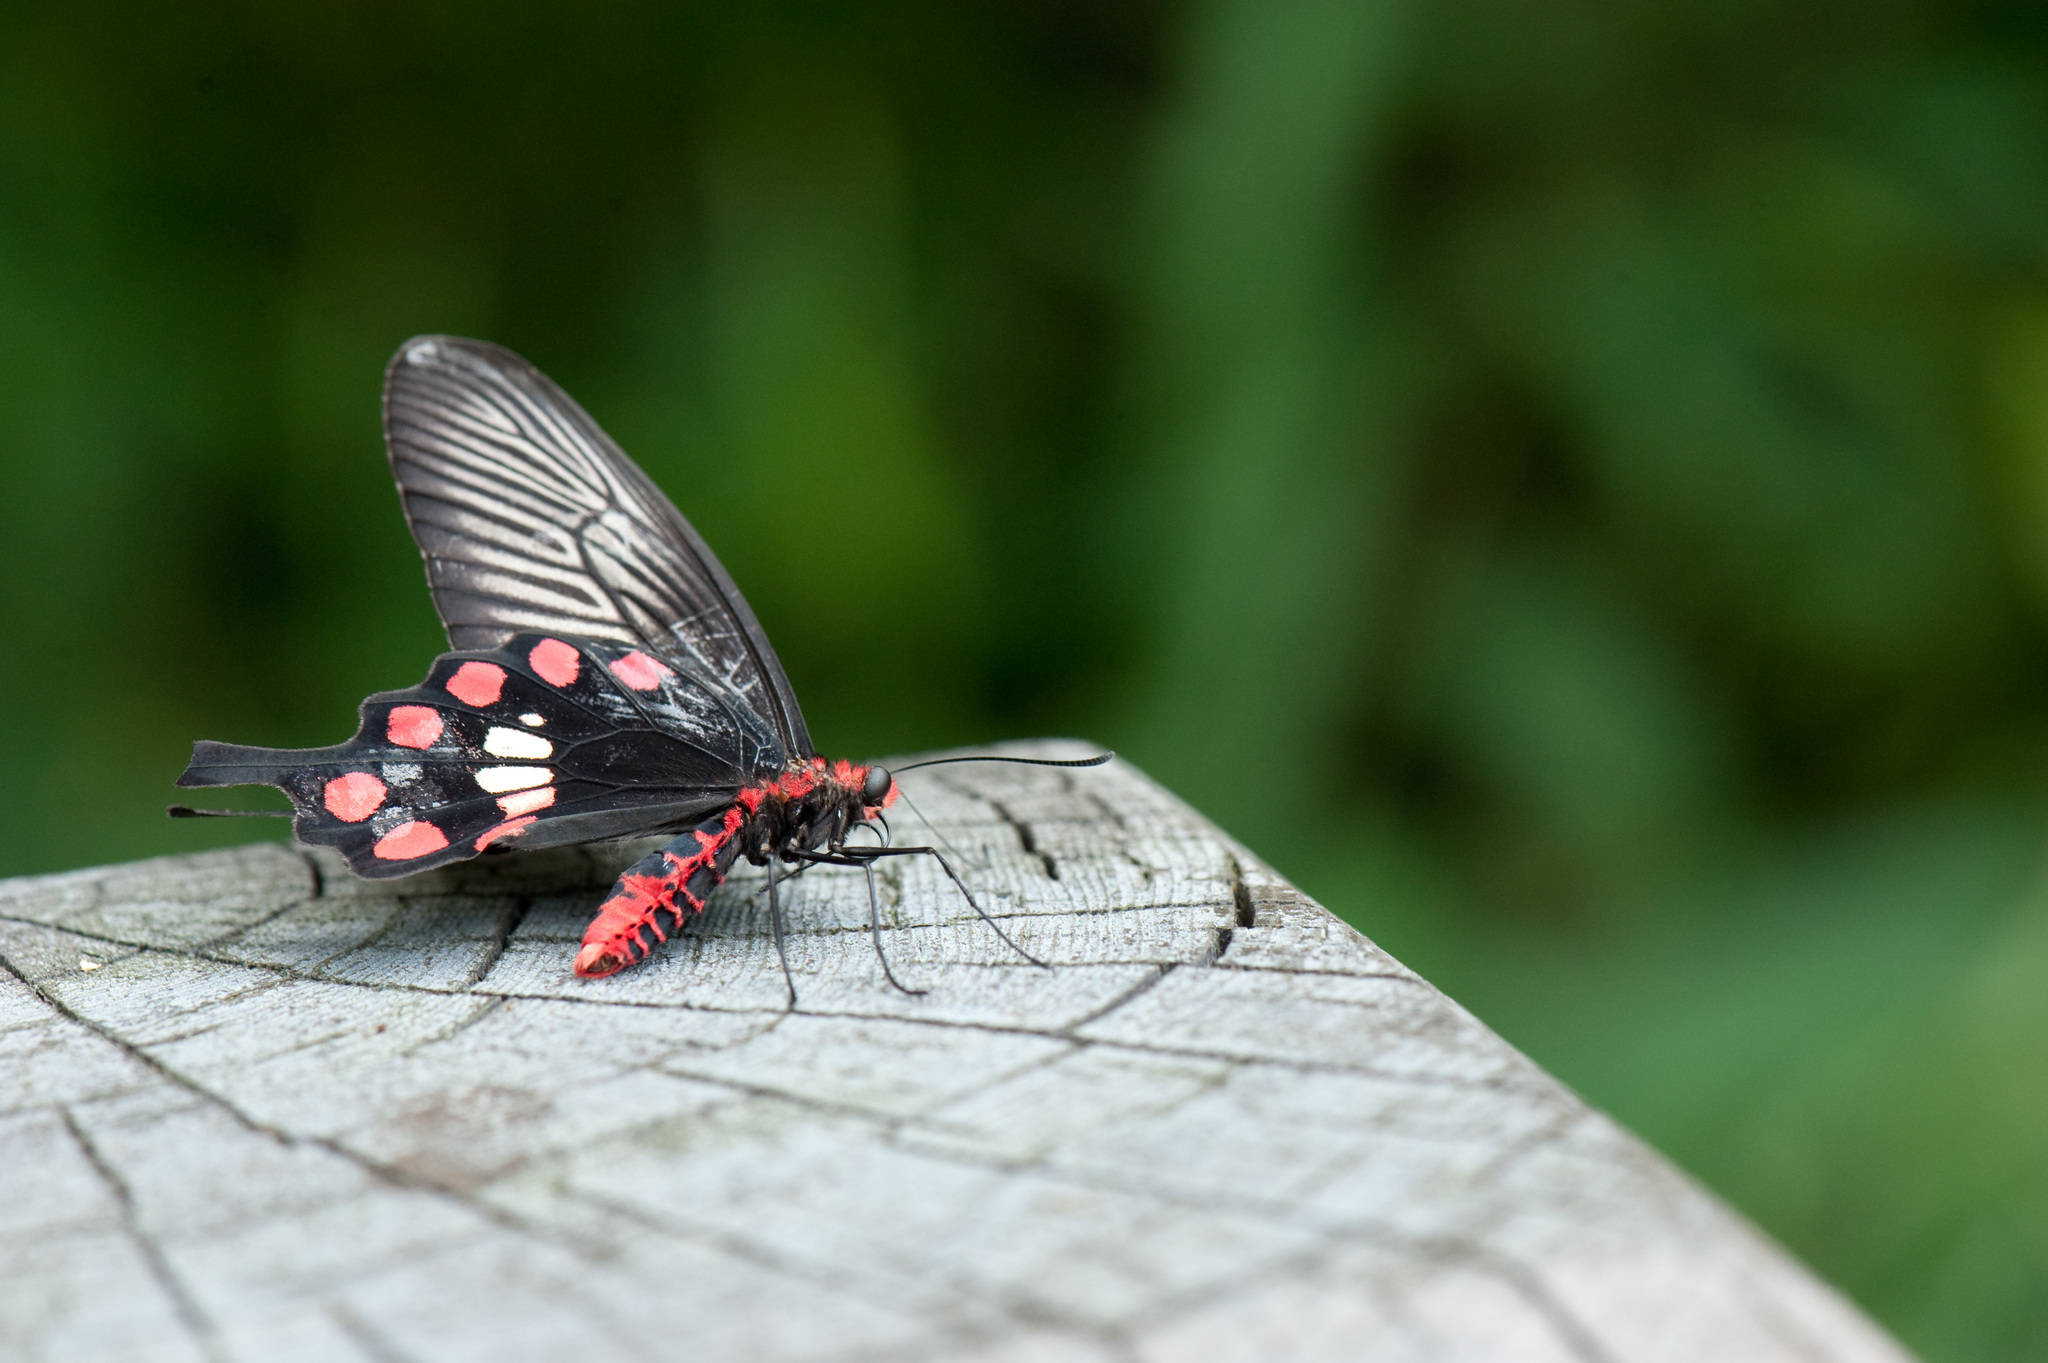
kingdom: Animalia
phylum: Arthropoda
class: Insecta
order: Lepidoptera
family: Papilionidae
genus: Pachliopta
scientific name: Pachliopta aristolochiae
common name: Common rose
